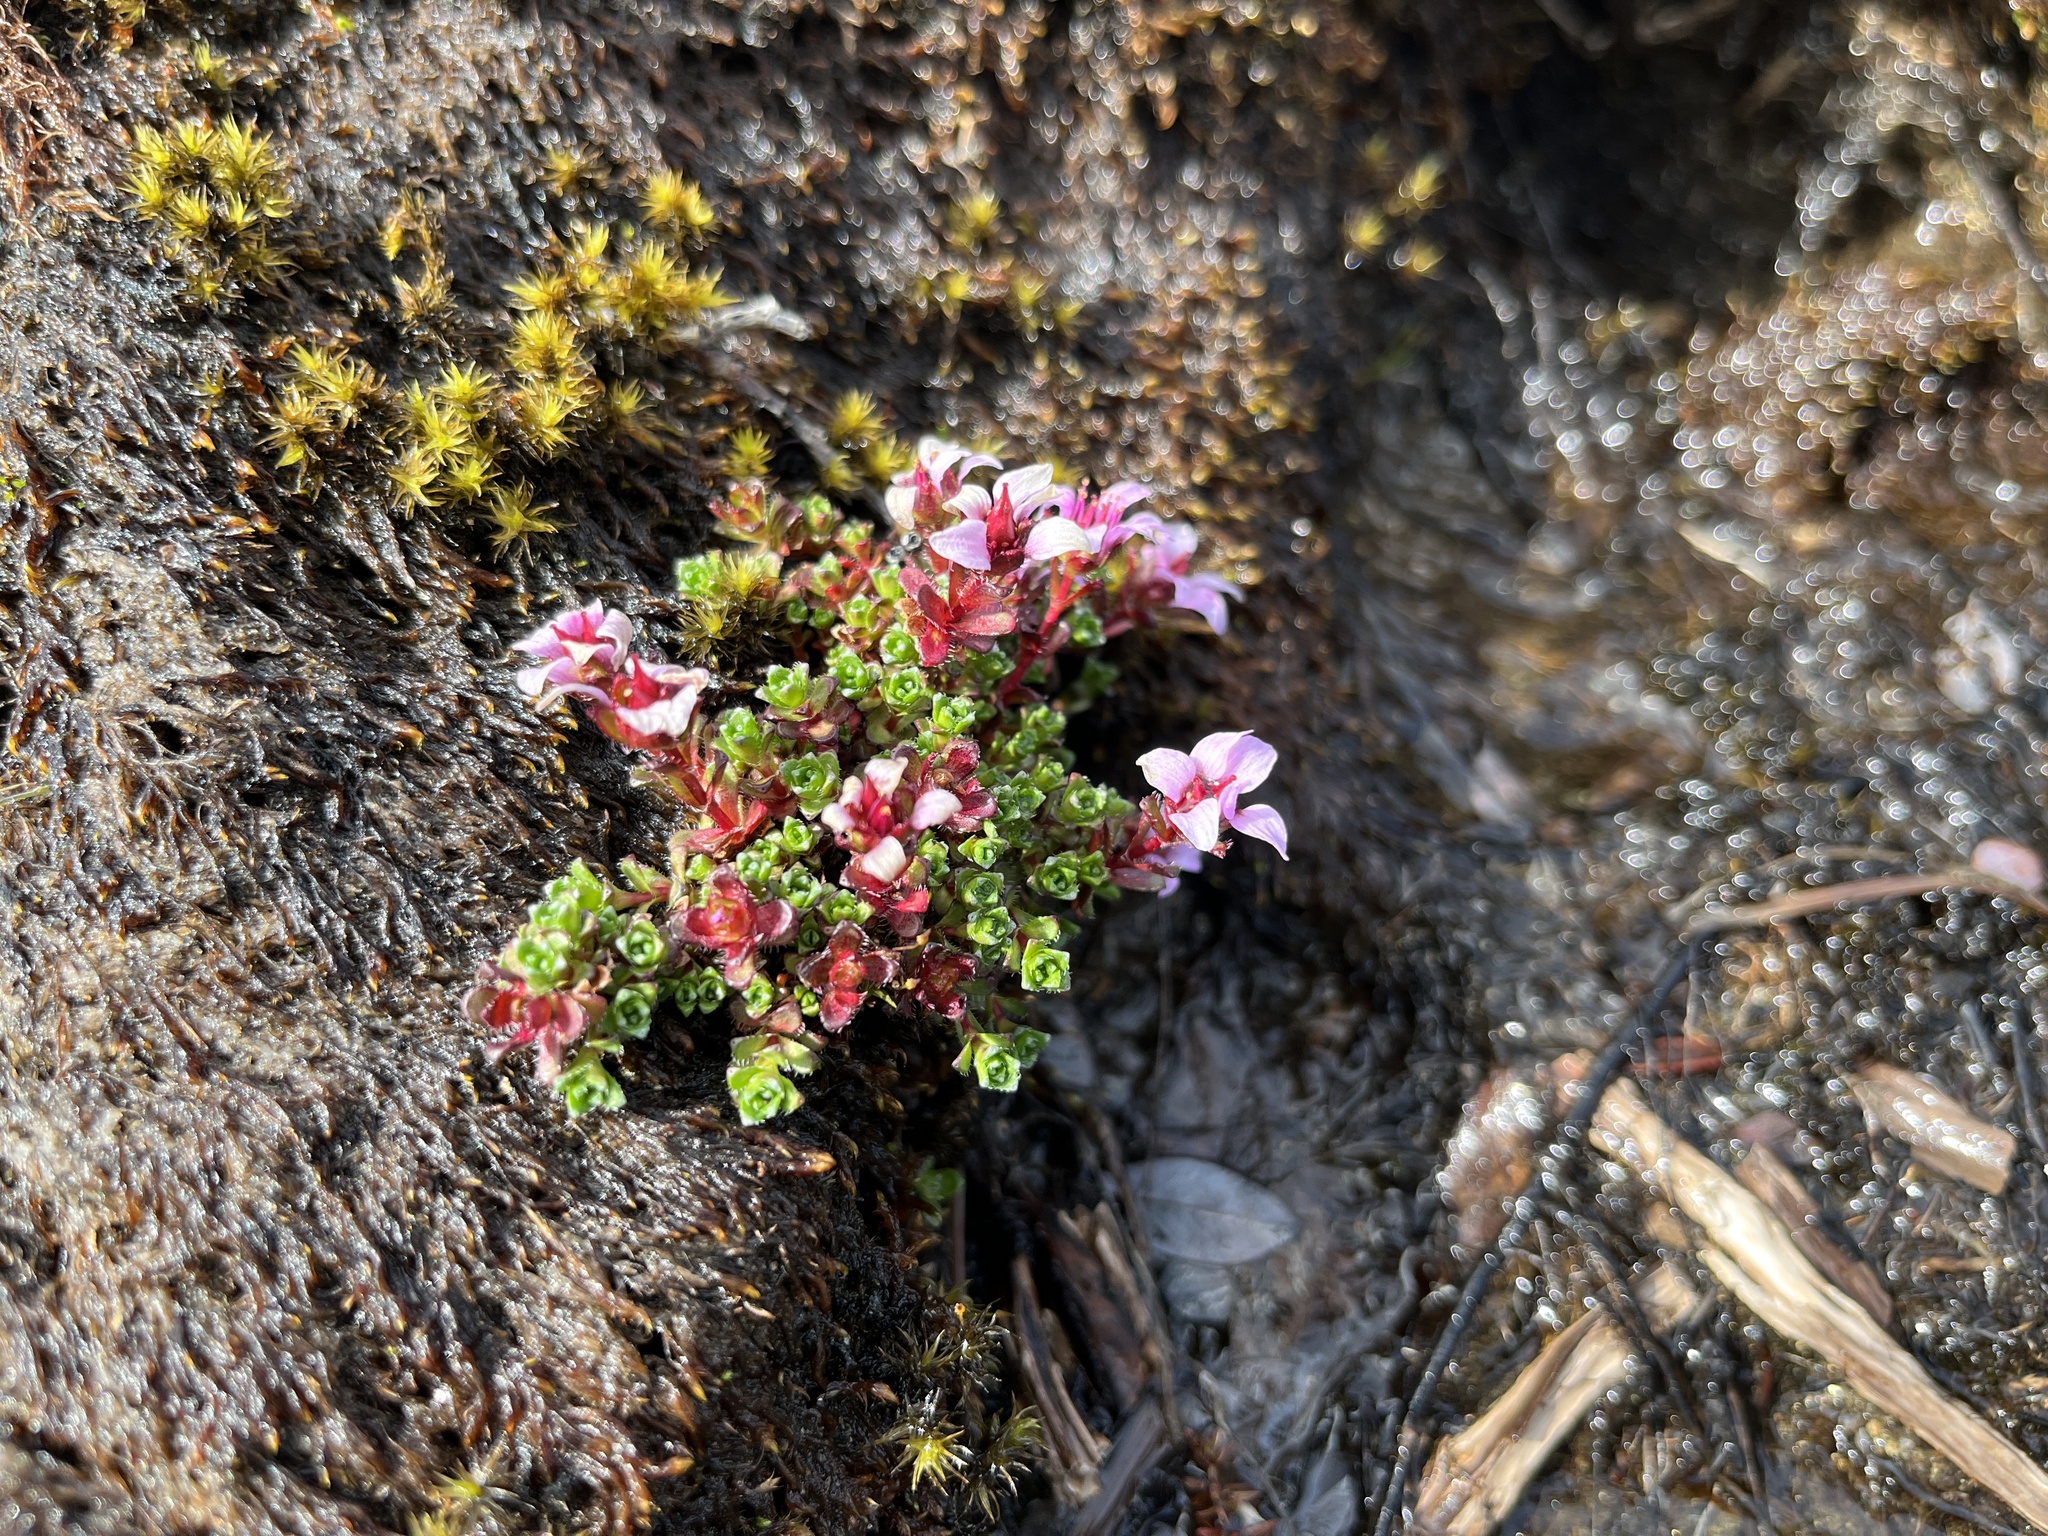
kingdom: Plantae
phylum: Tracheophyta
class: Magnoliopsida
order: Saxifragales
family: Saxifragaceae
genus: Saxifraga
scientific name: Saxifraga oppositifolia
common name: Purple saxifrage
